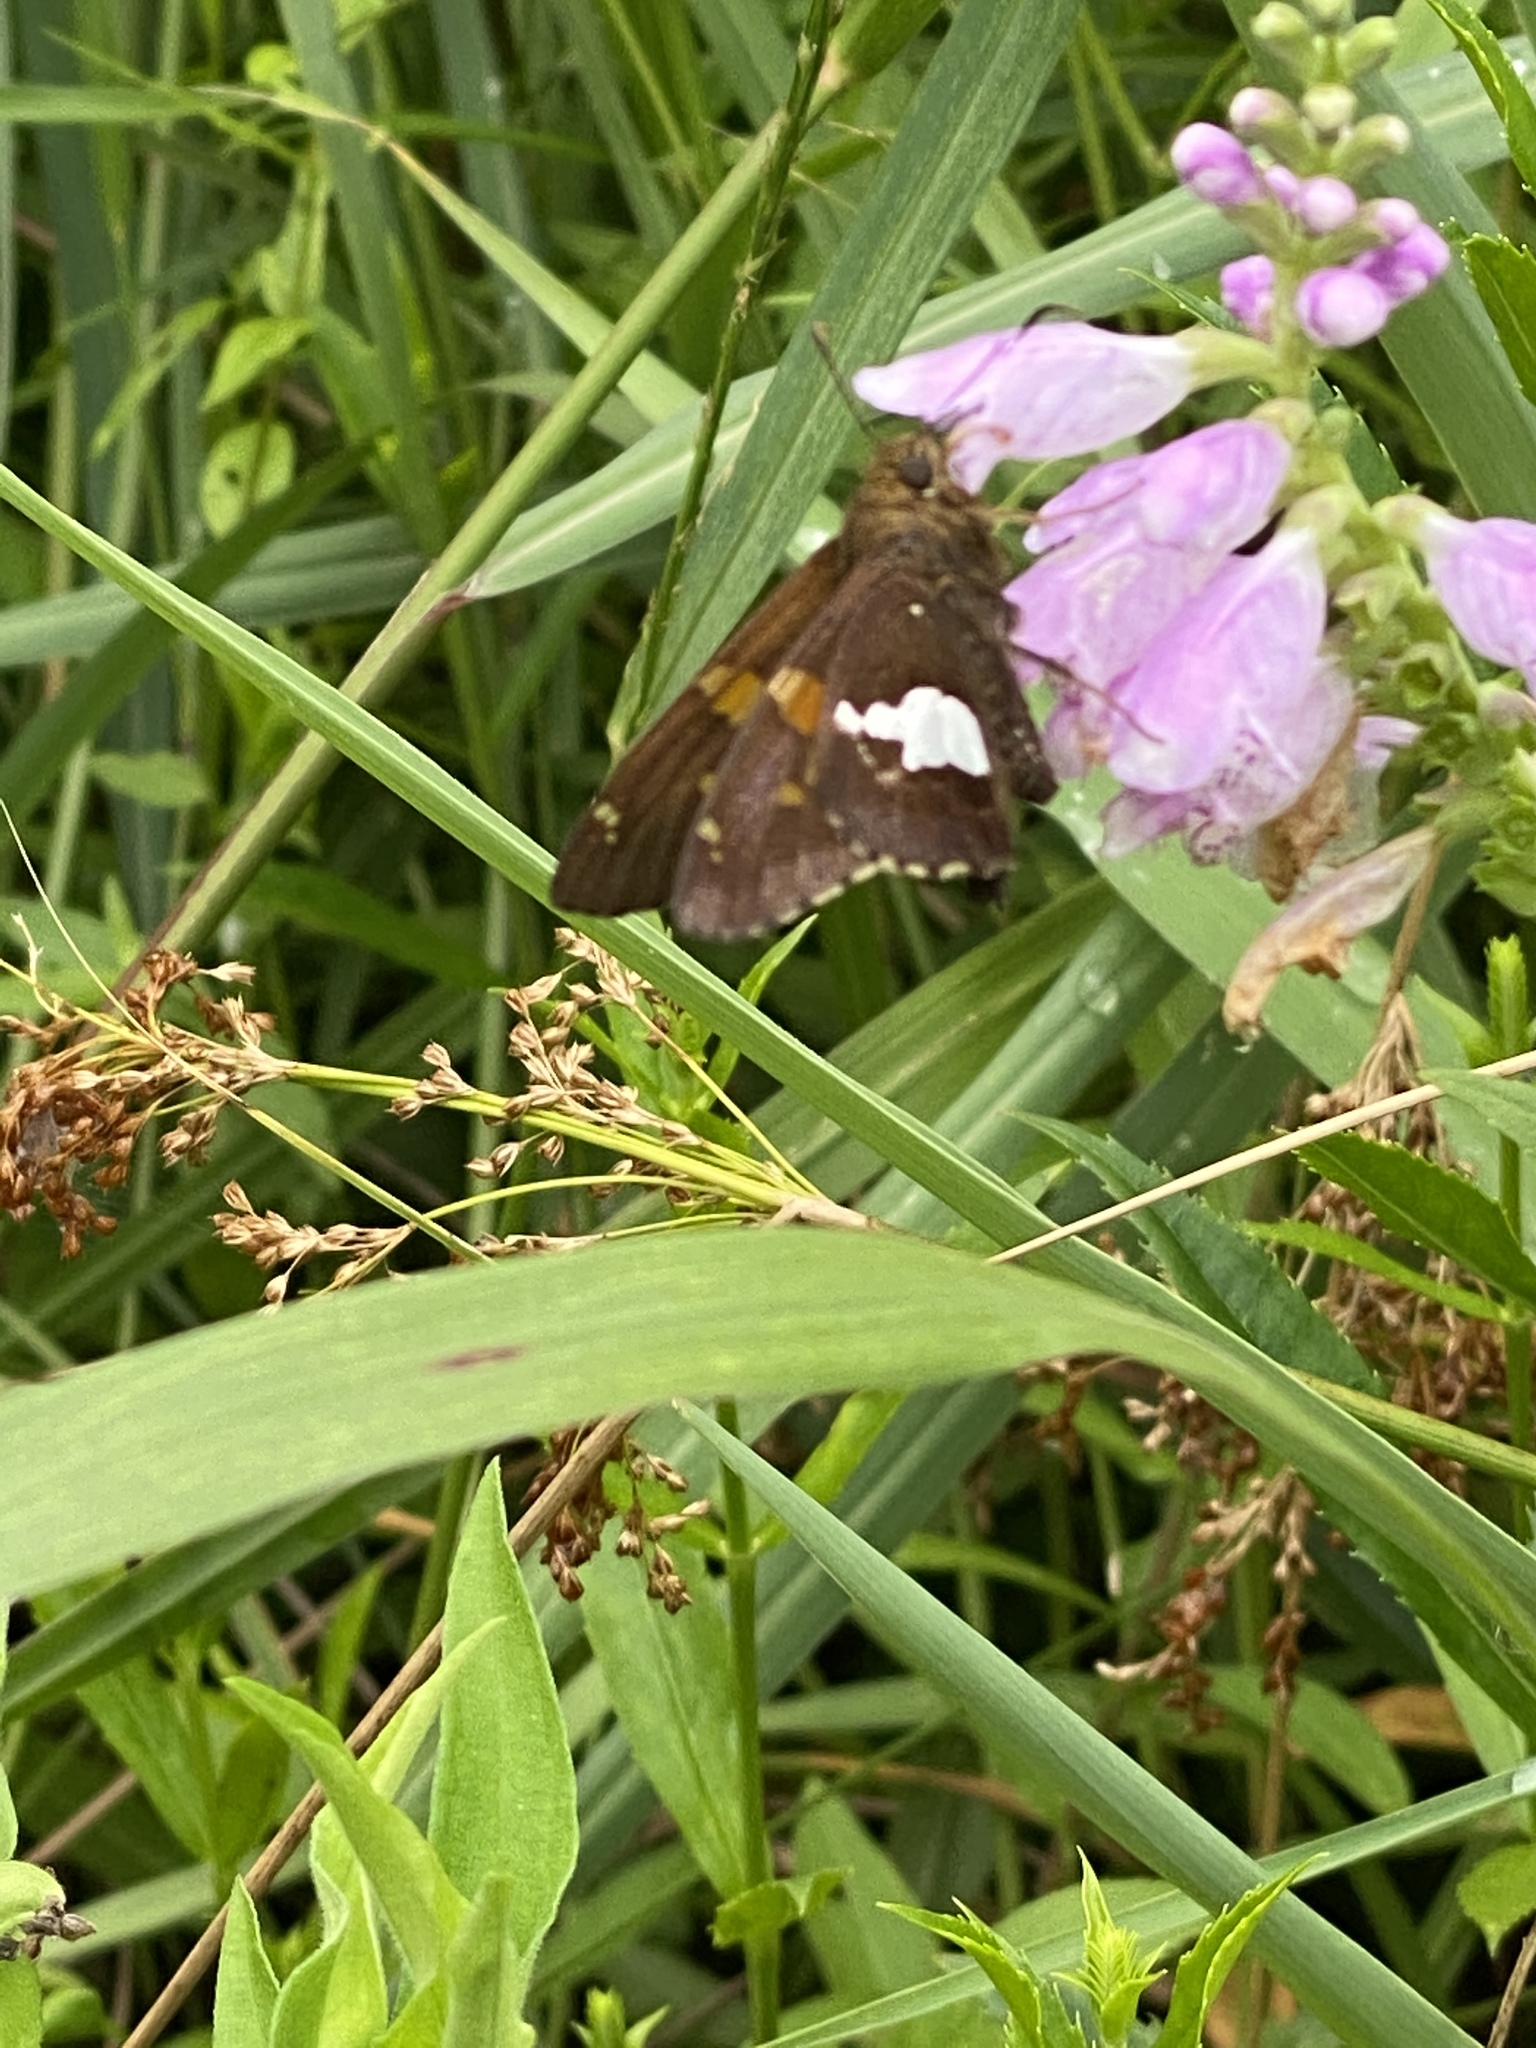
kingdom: Animalia
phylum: Arthropoda
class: Insecta
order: Lepidoptera
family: Hesperiidae
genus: Epargyreus
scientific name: Epargyreus clarus
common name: Silver-spotted skipper
